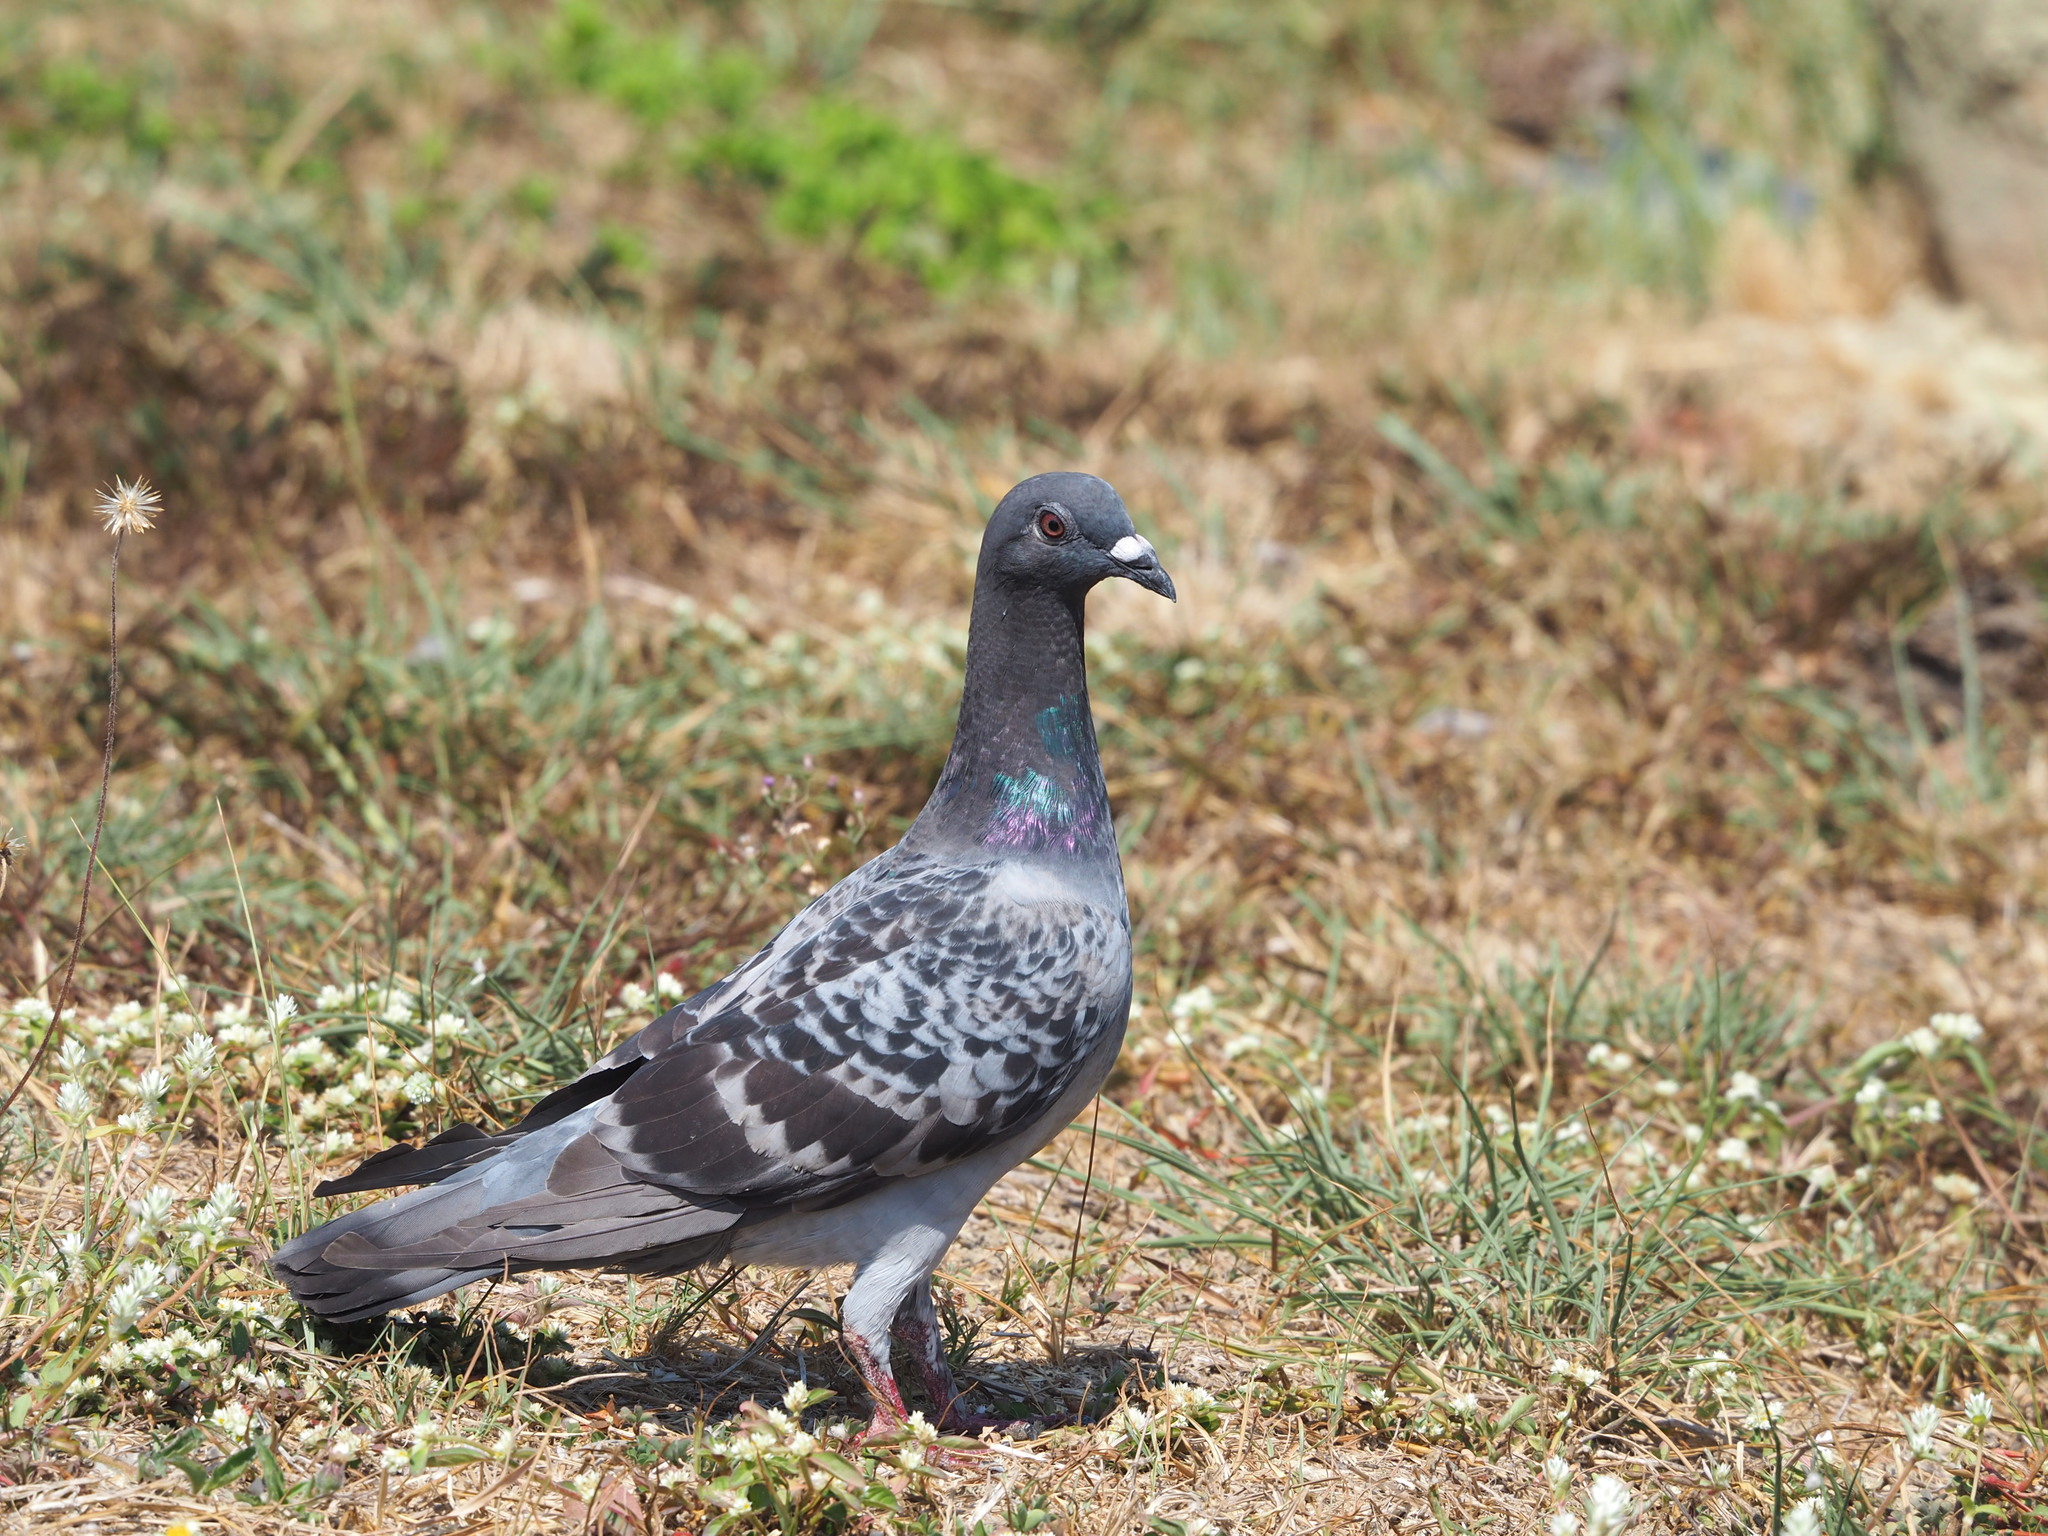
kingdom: Animalia
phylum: Chordata
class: Aves
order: Columbiformes
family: Columbidae
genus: Columba
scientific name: Columba livia
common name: Rock pigeon
